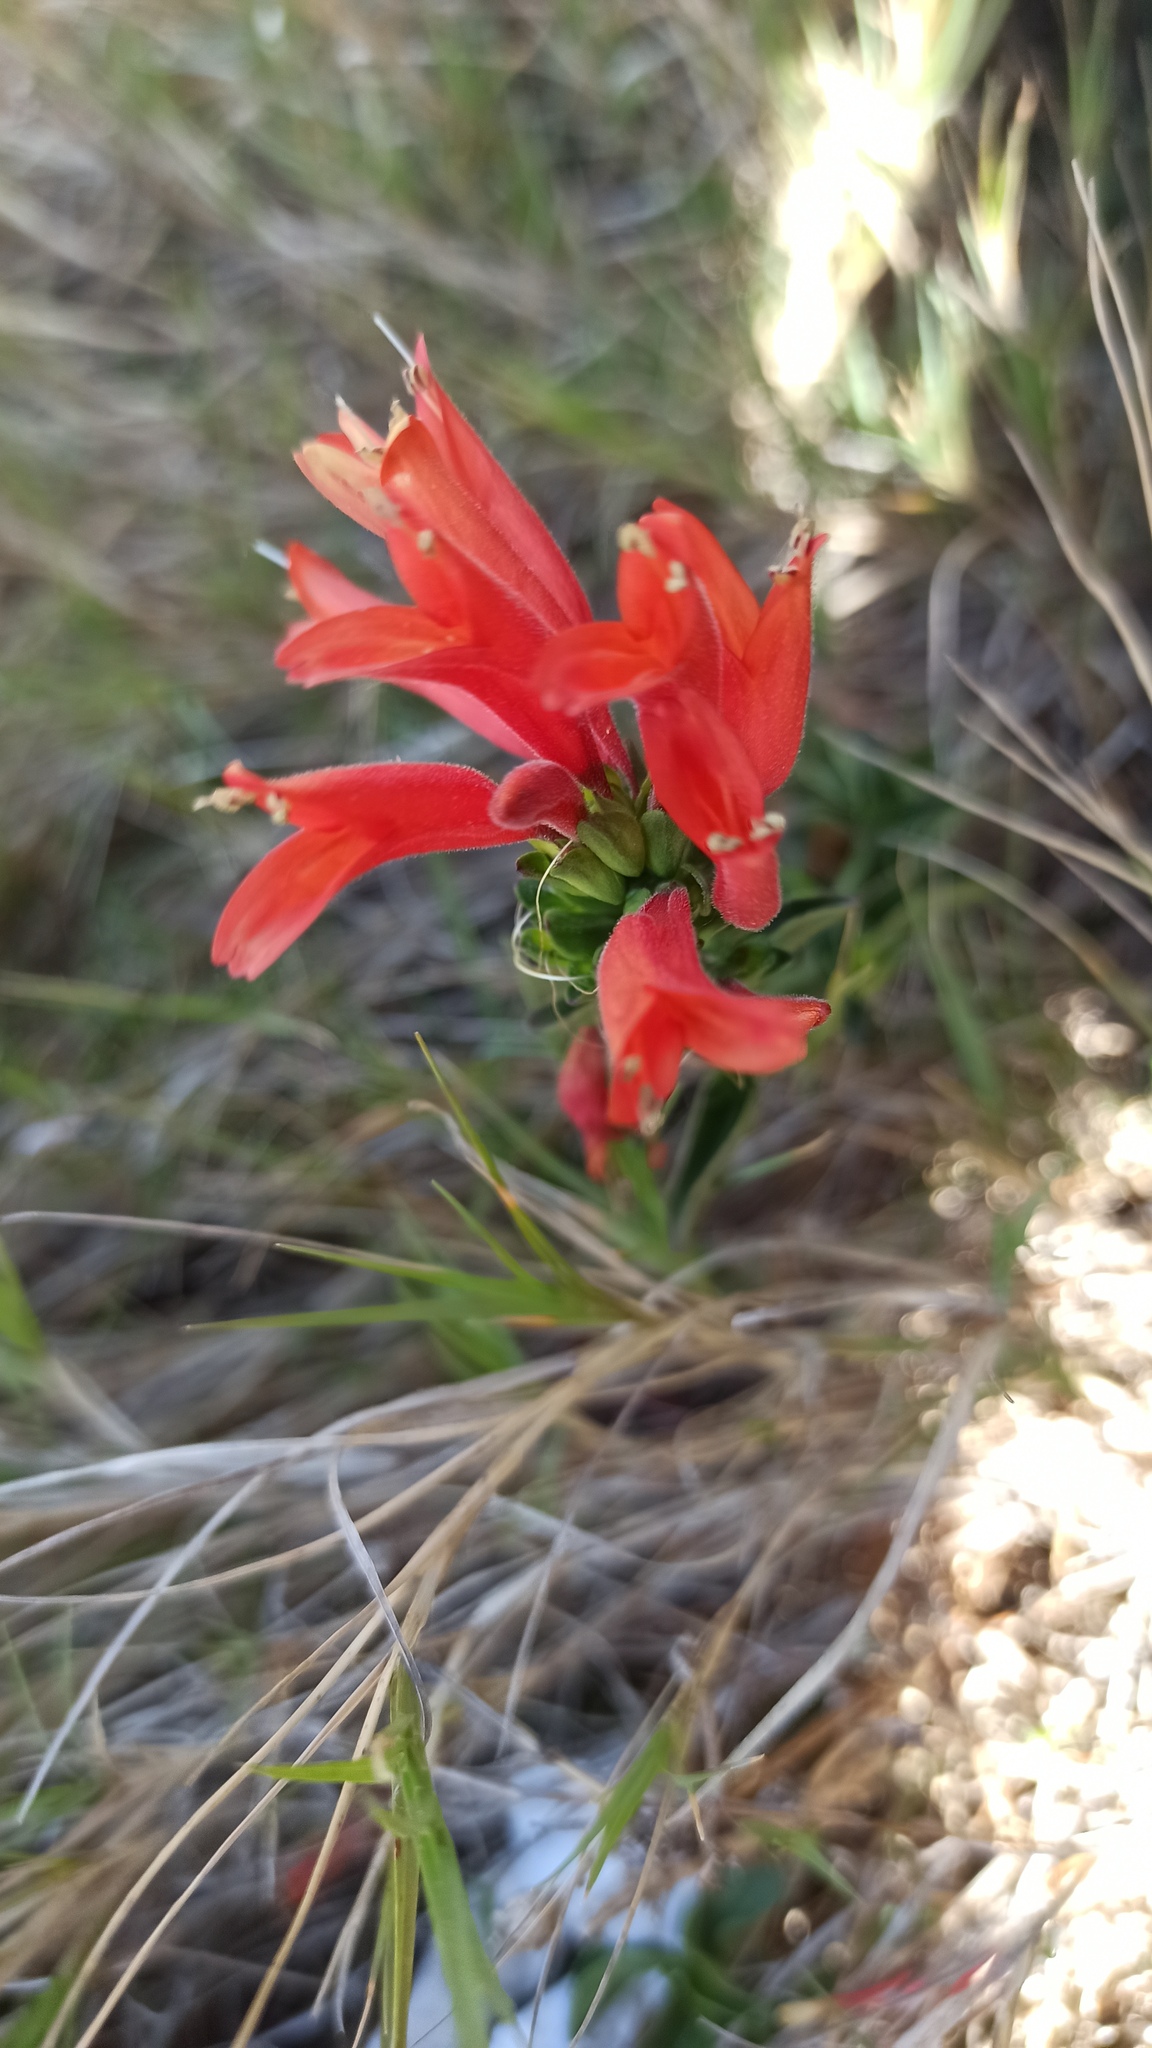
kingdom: Plantae
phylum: Tracheophyta
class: Magnoliopsida
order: Lamiales
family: Acanthaceae
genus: Dicliptera
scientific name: Dicliptera squarrosa
